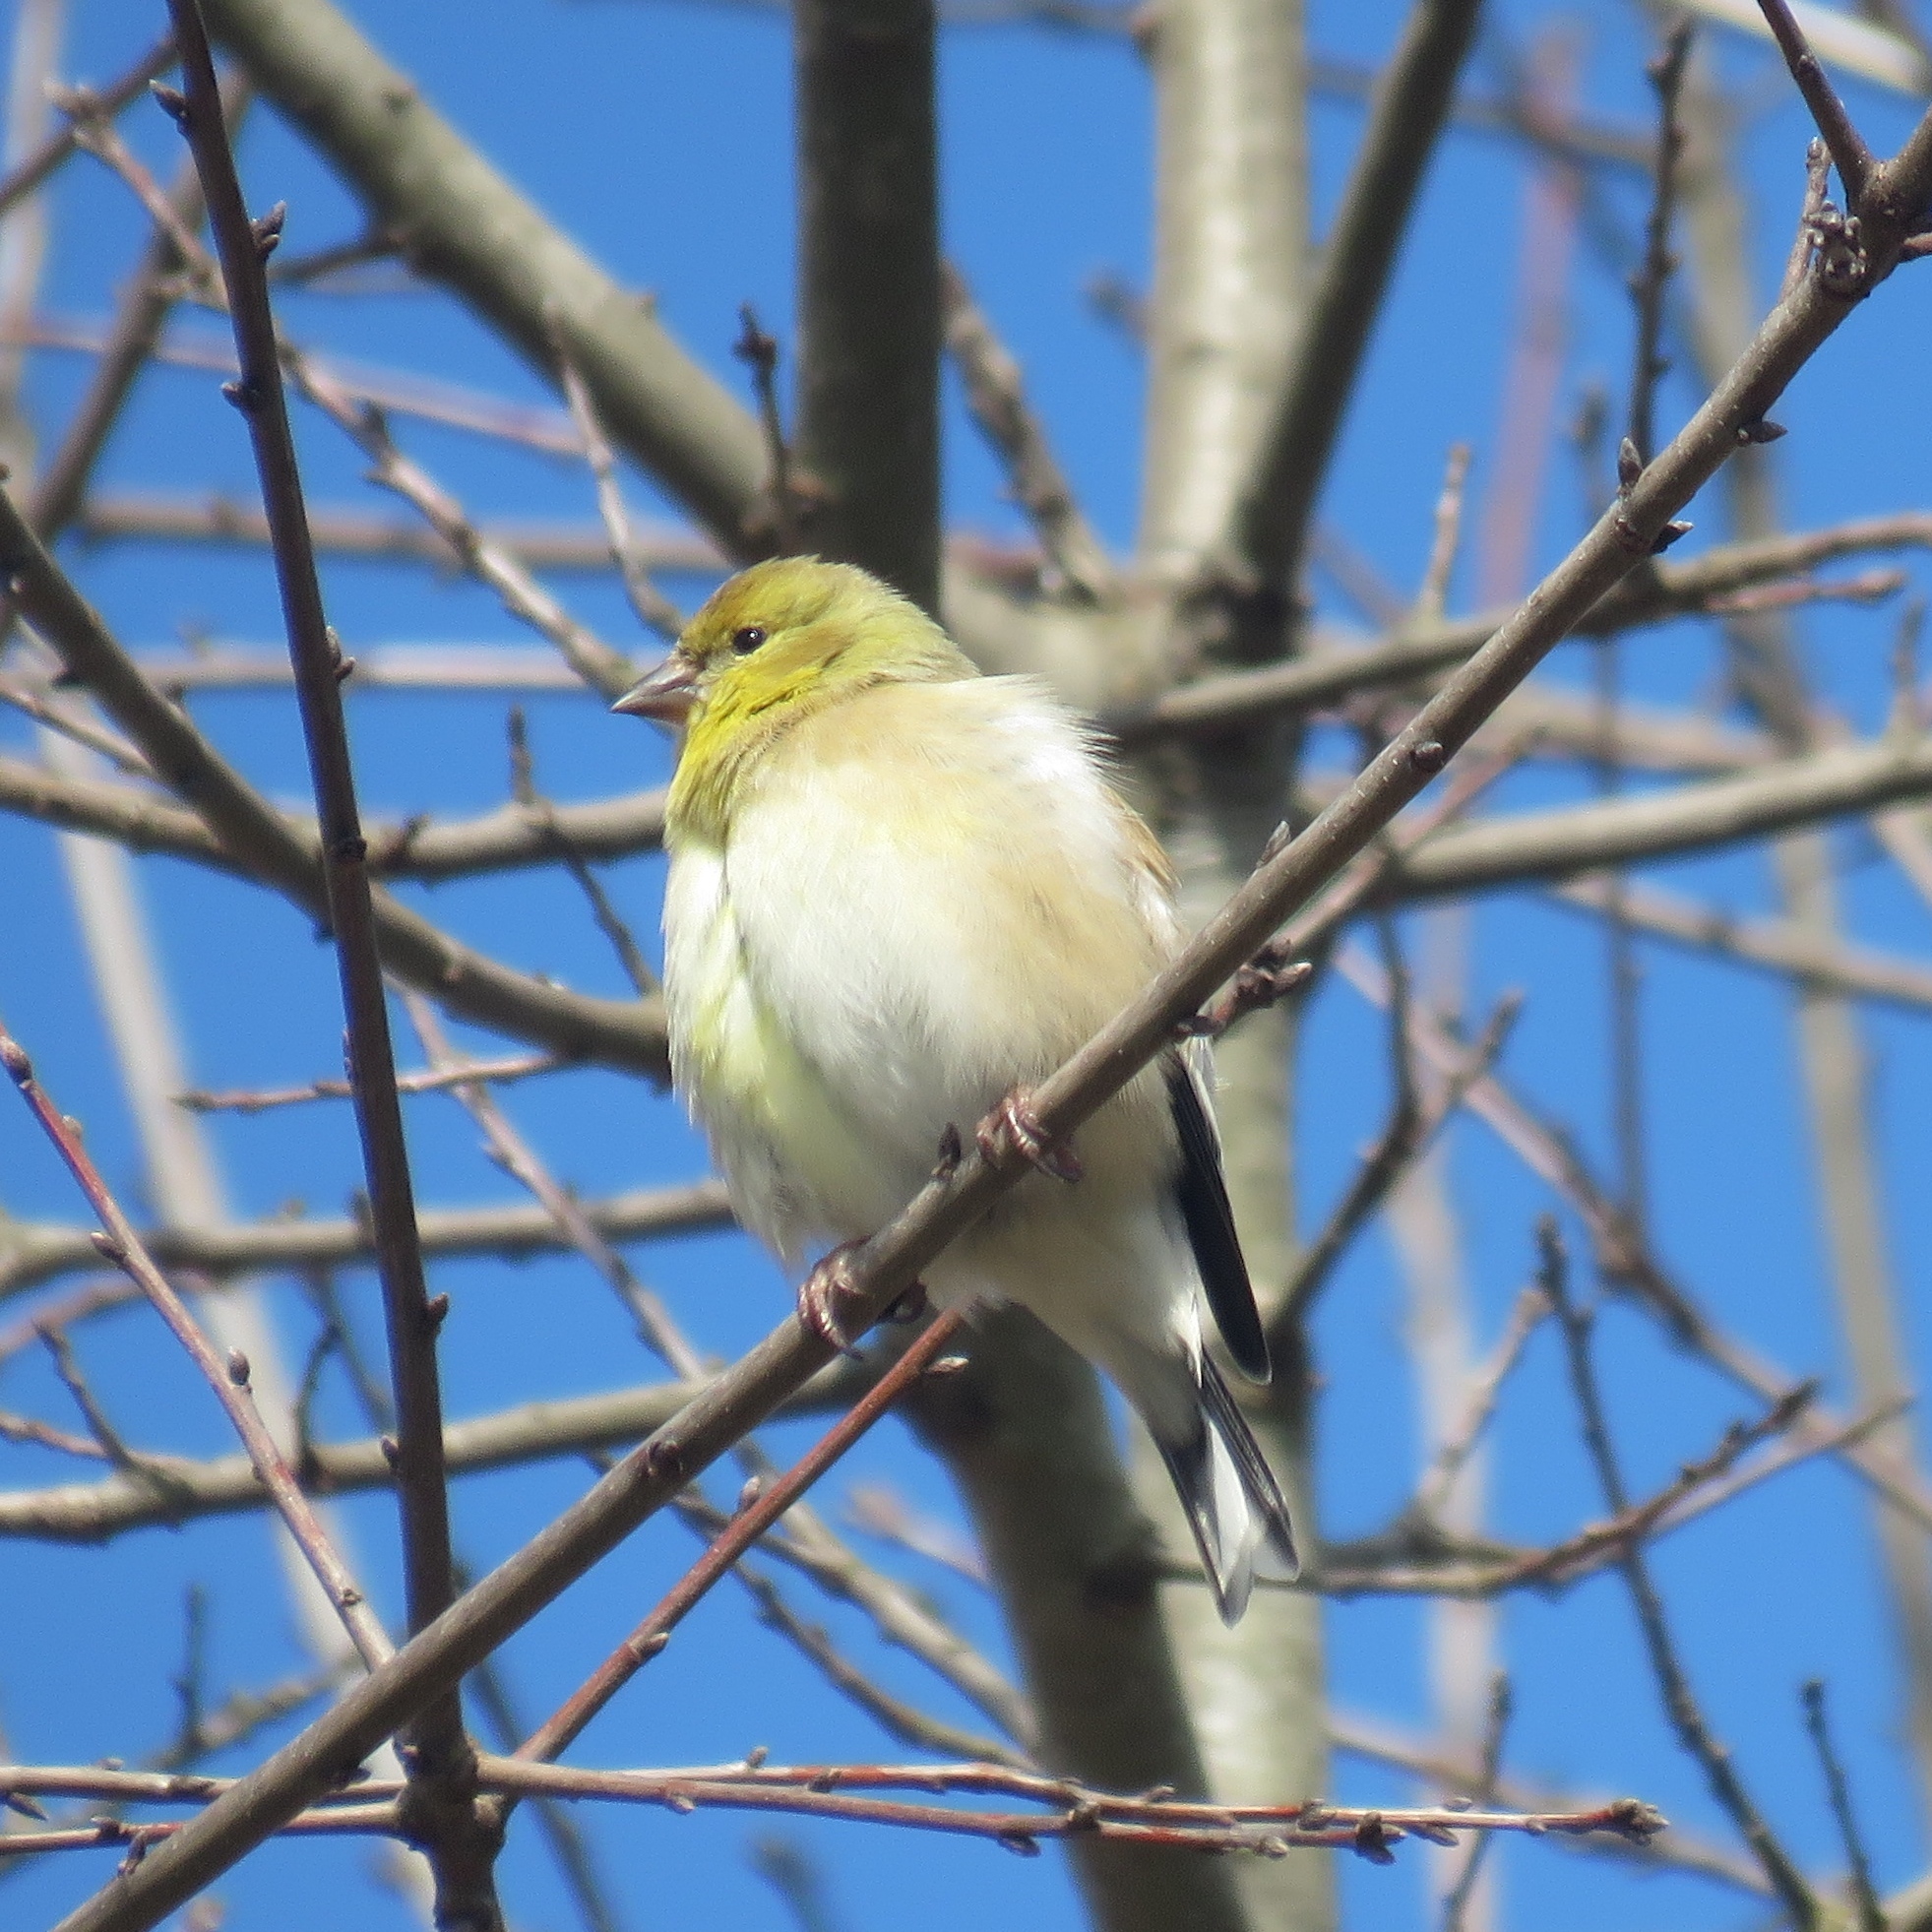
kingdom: Animalia
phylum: Chordata
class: Aves
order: Passeriformes
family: Fringillidae
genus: Spinus
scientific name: Spinus tristis
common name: American goldfinch
